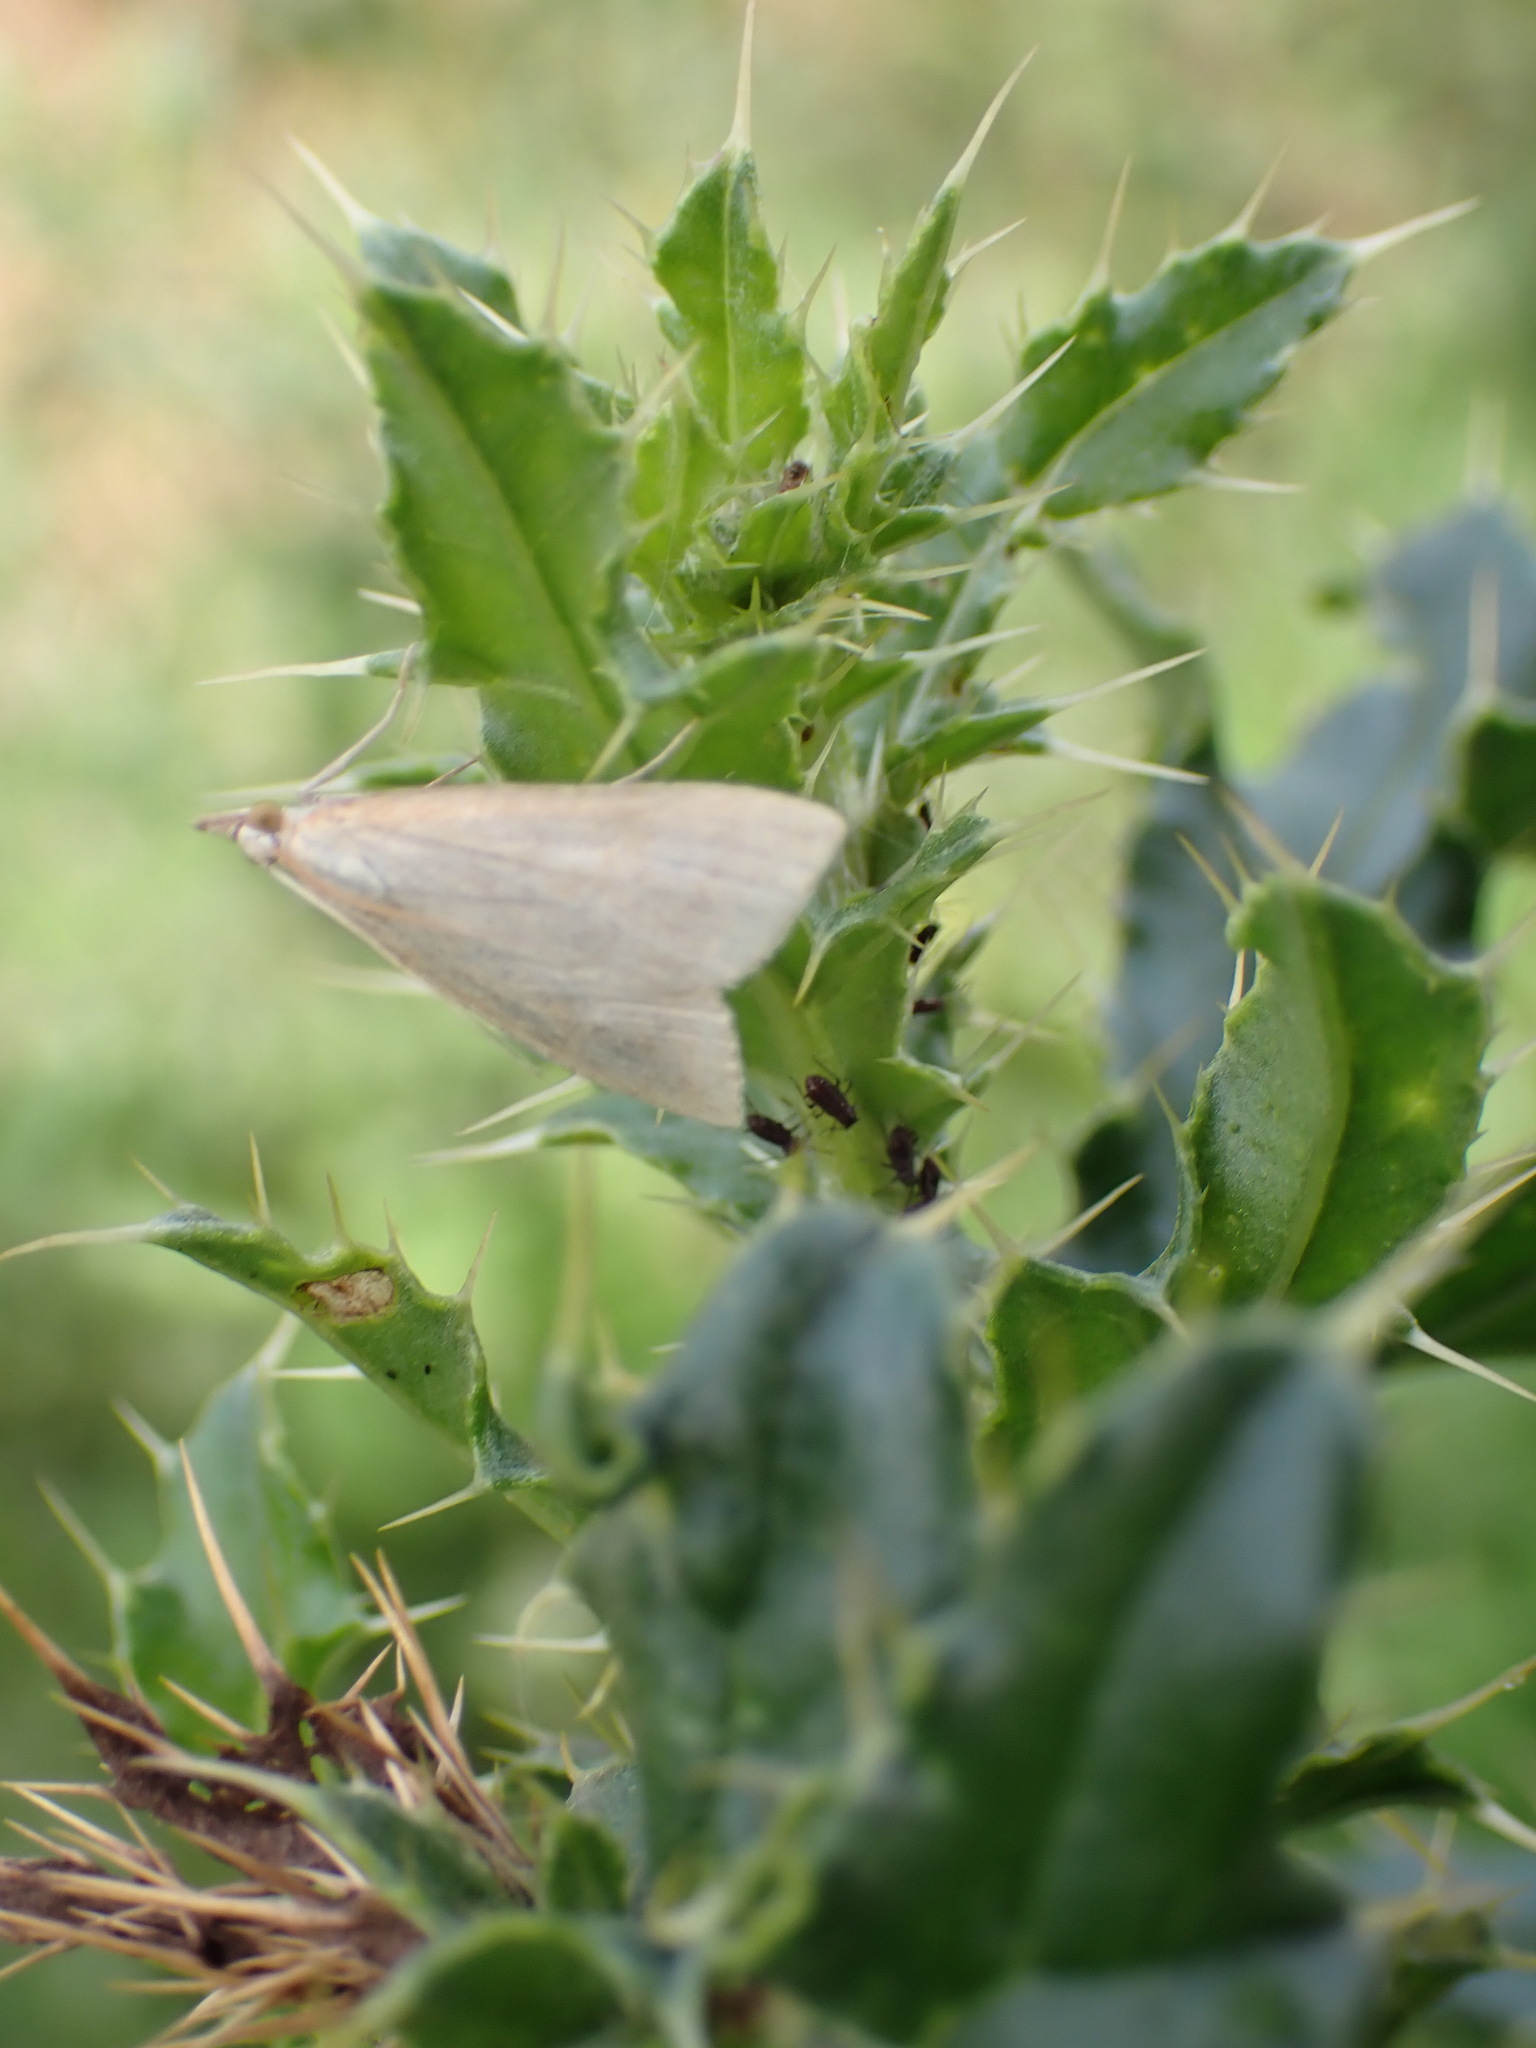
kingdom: Animalia
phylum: Arthropoda
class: Insecta
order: Lepidoptera
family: Crambidae
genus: Udea
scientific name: Udea lutealis
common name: Pale straw pearl
